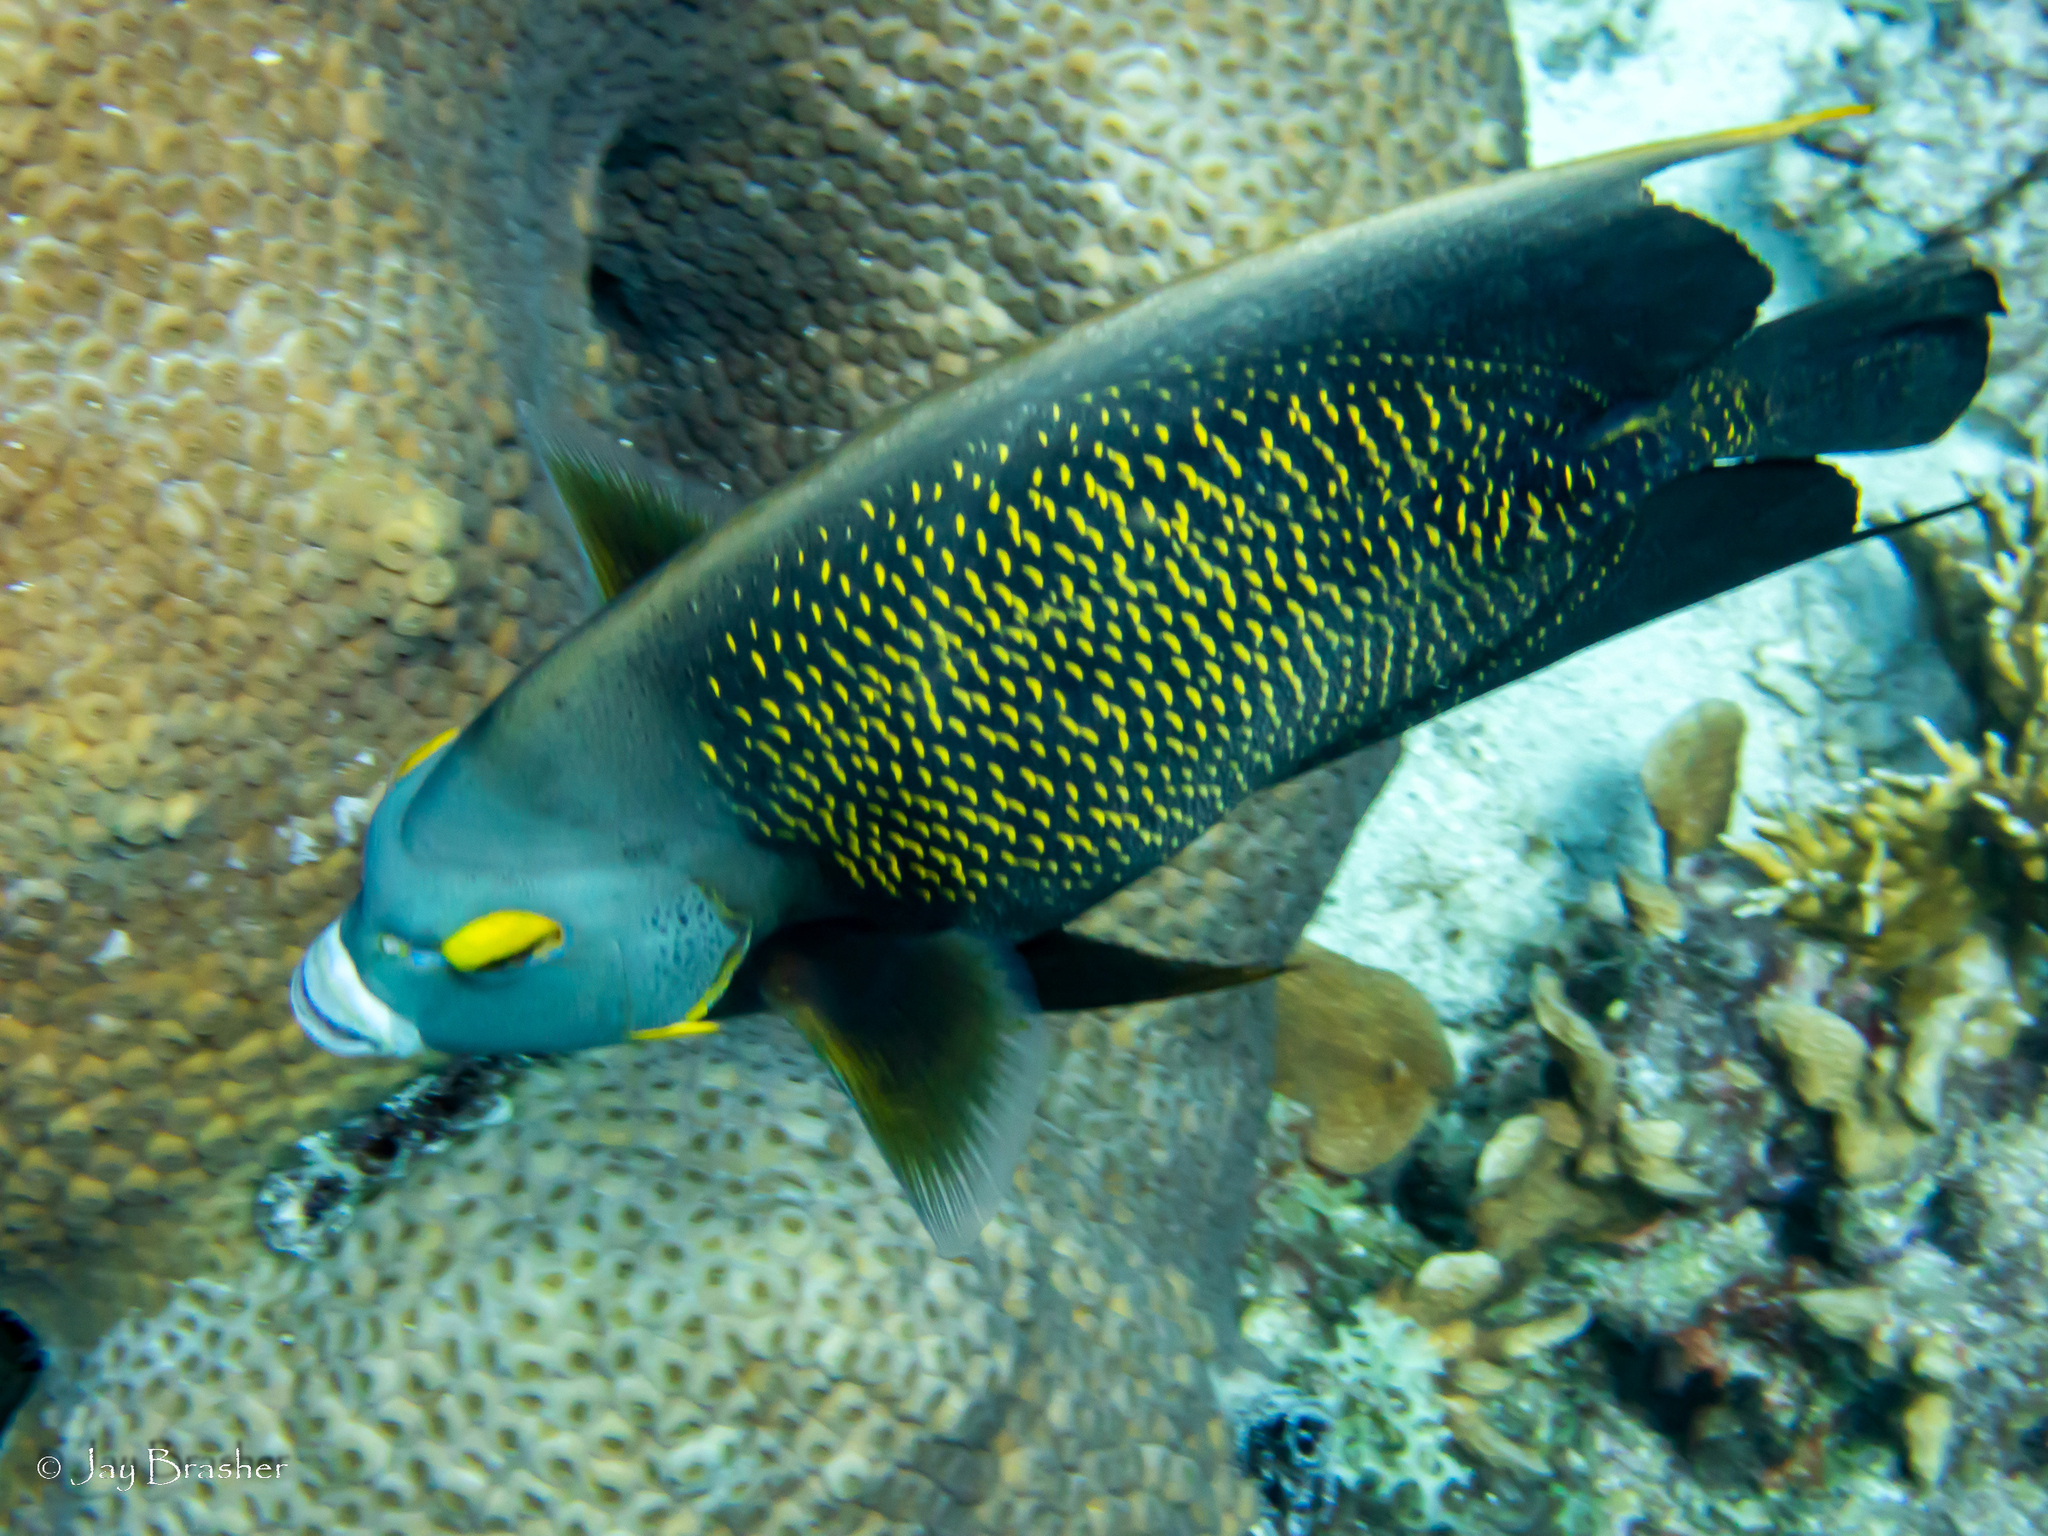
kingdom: Animalia
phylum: Chordata
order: Perciformes
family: Pomacanthidae
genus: Pomacanthus
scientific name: Pomacanthus paru
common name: French angelfish
